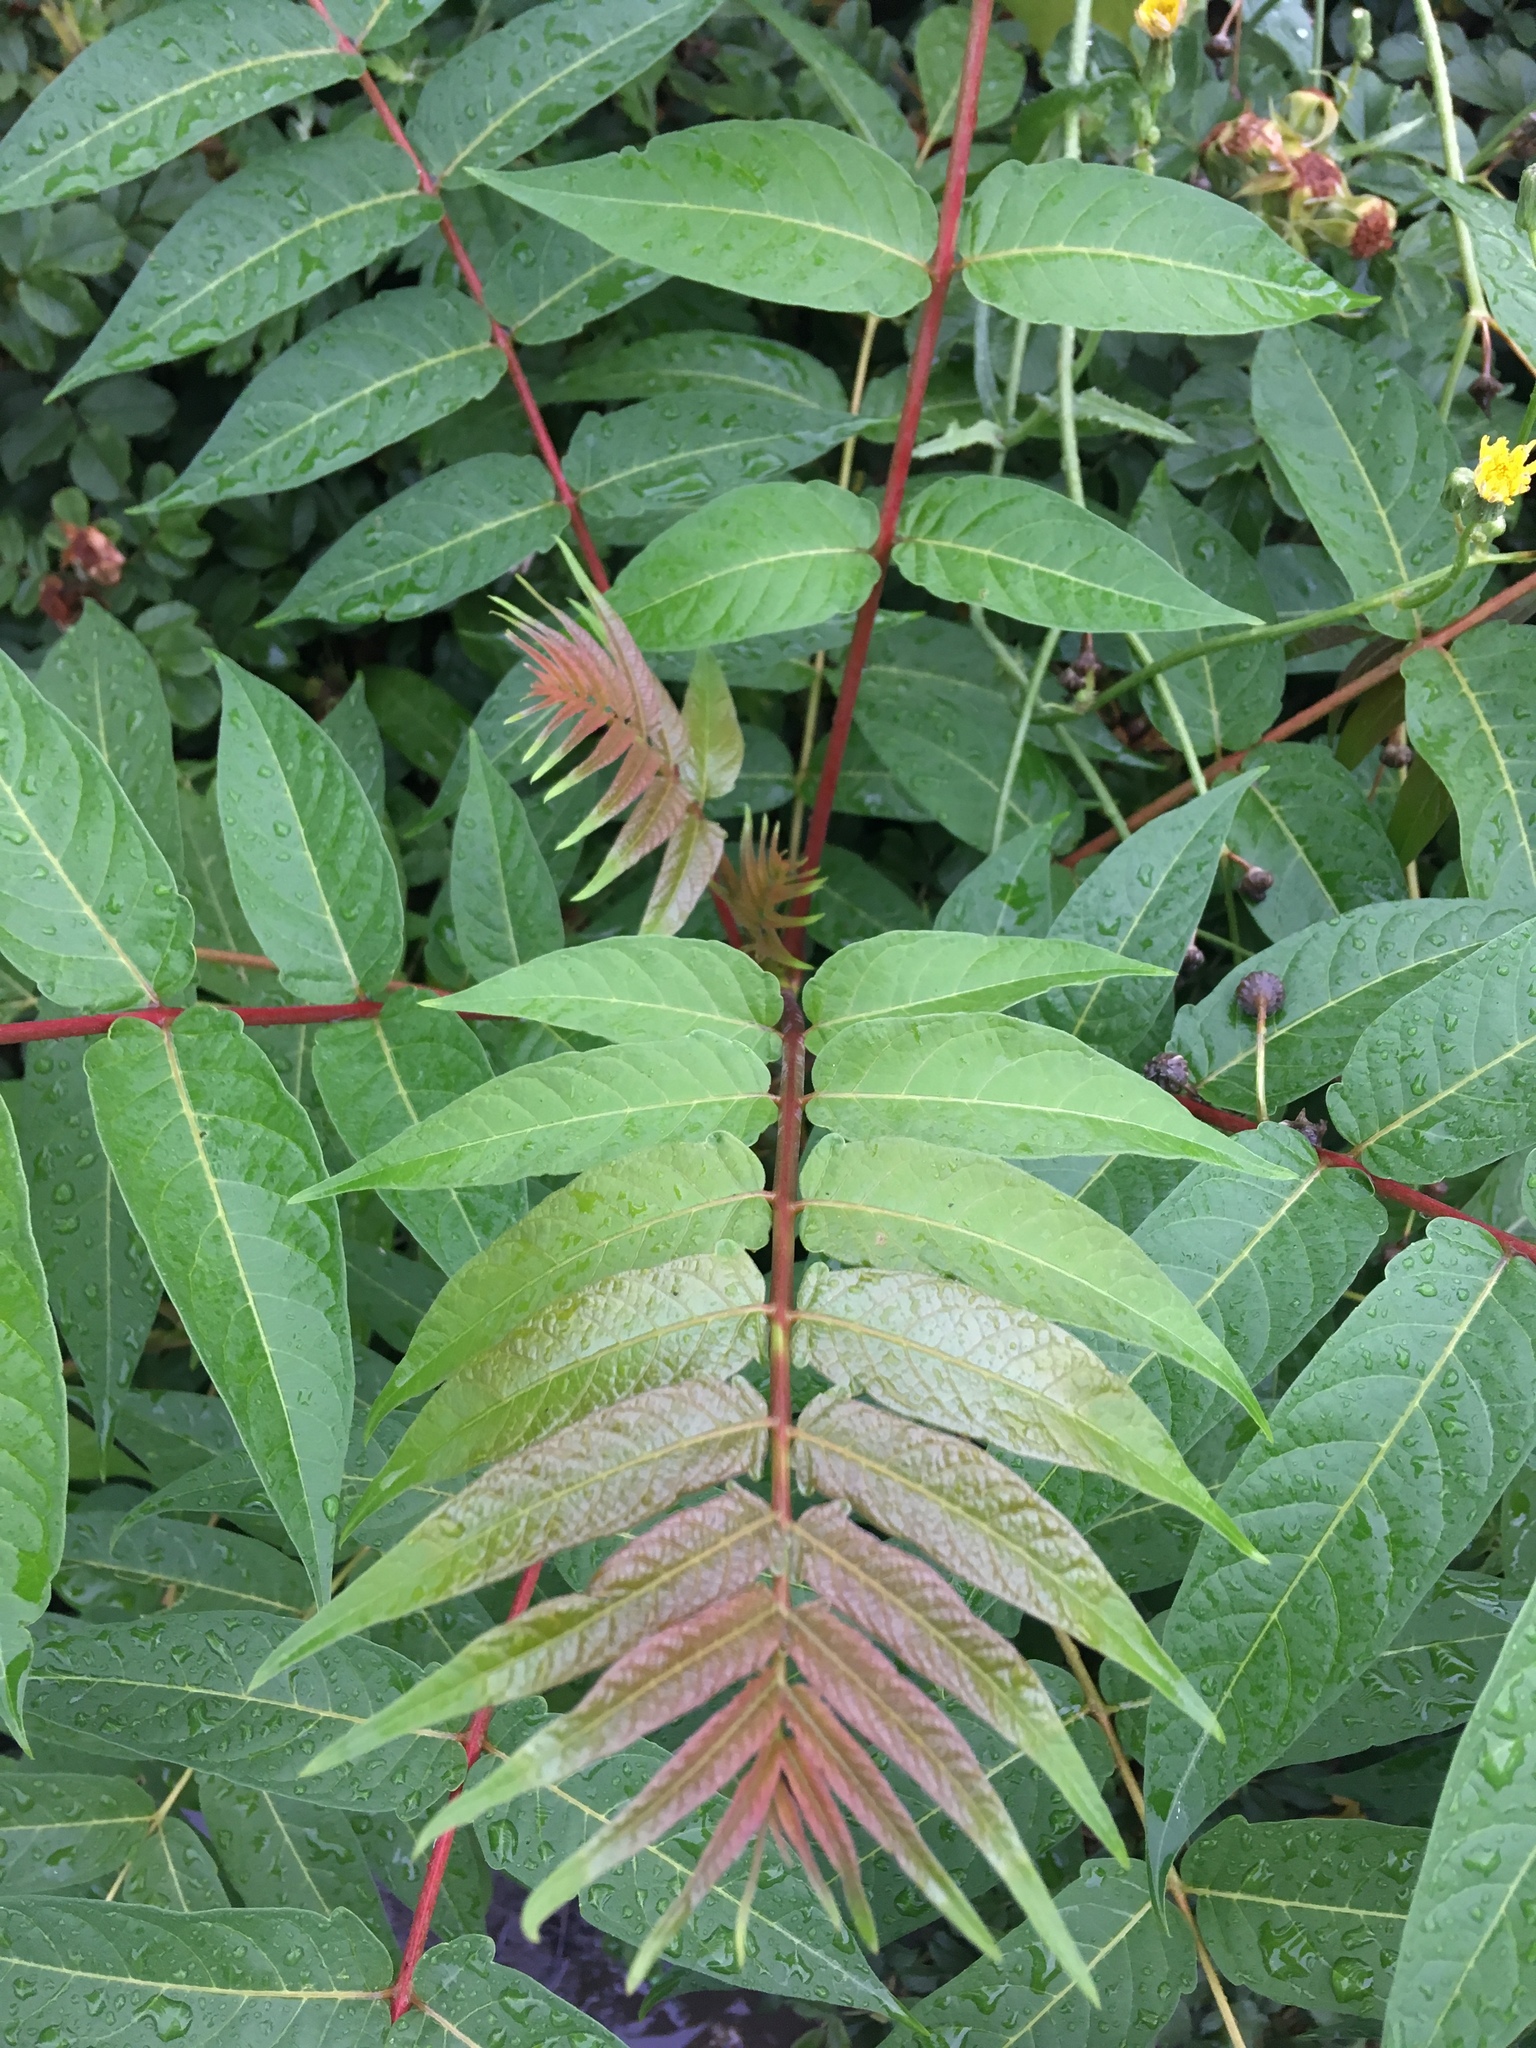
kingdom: Plantae
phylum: Tracheophyta
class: Magnoliopsida
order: Sapindales
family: Simaroubaceae
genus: Ailanthus
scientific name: Ailanthus altissima
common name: Tree-of-heaven
